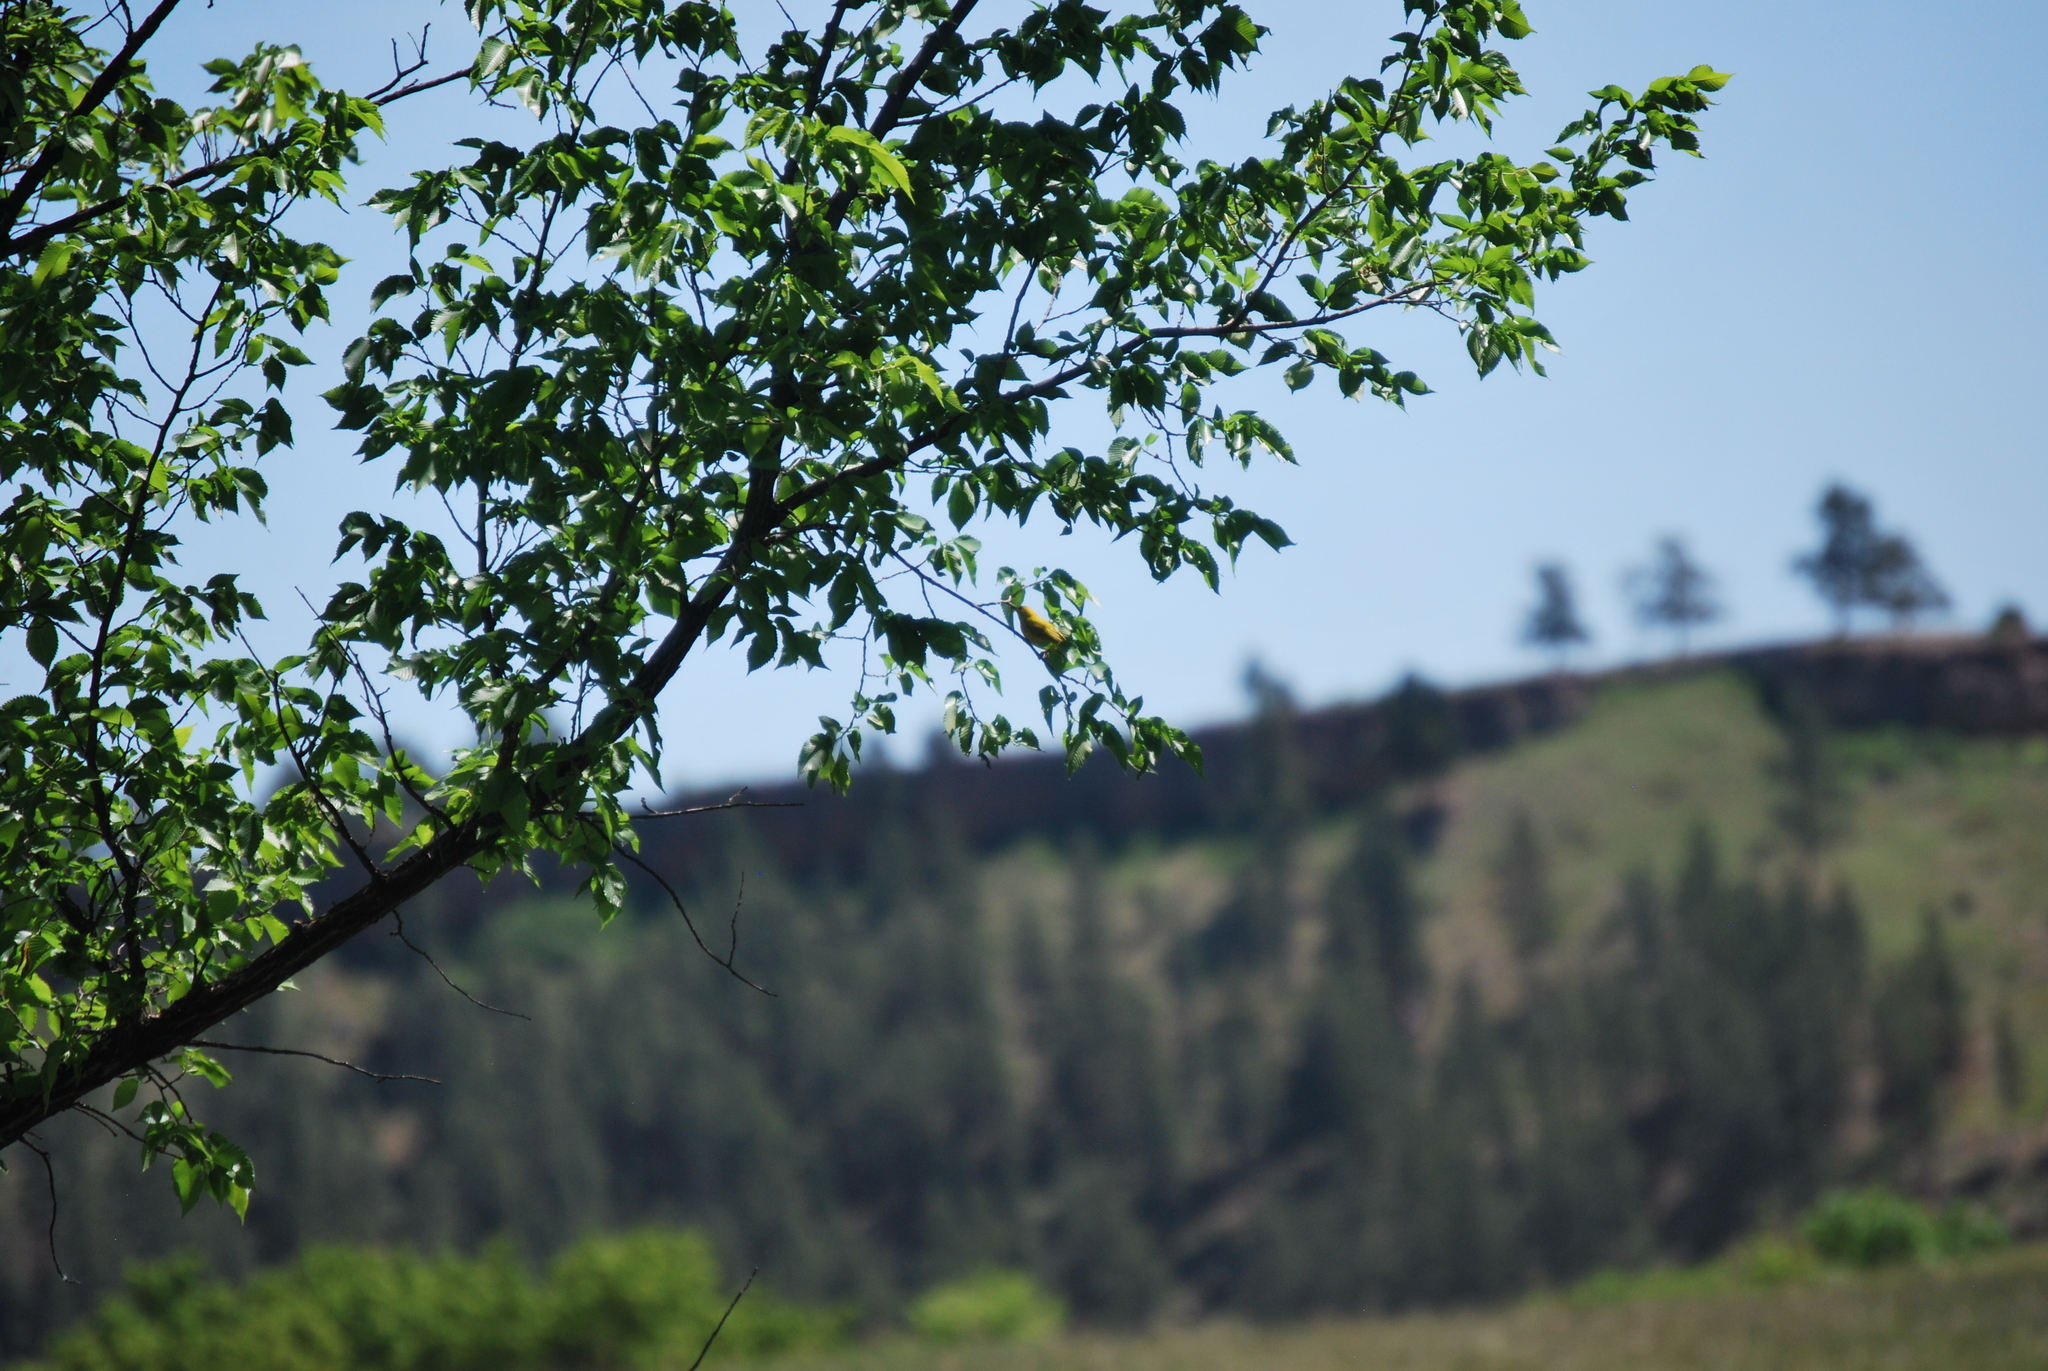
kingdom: Animalia
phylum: Chordata
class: Aves
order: Passeriformes
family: Parulidae
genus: Setophaga
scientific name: Setophaga petechia
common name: Yellow warbler
